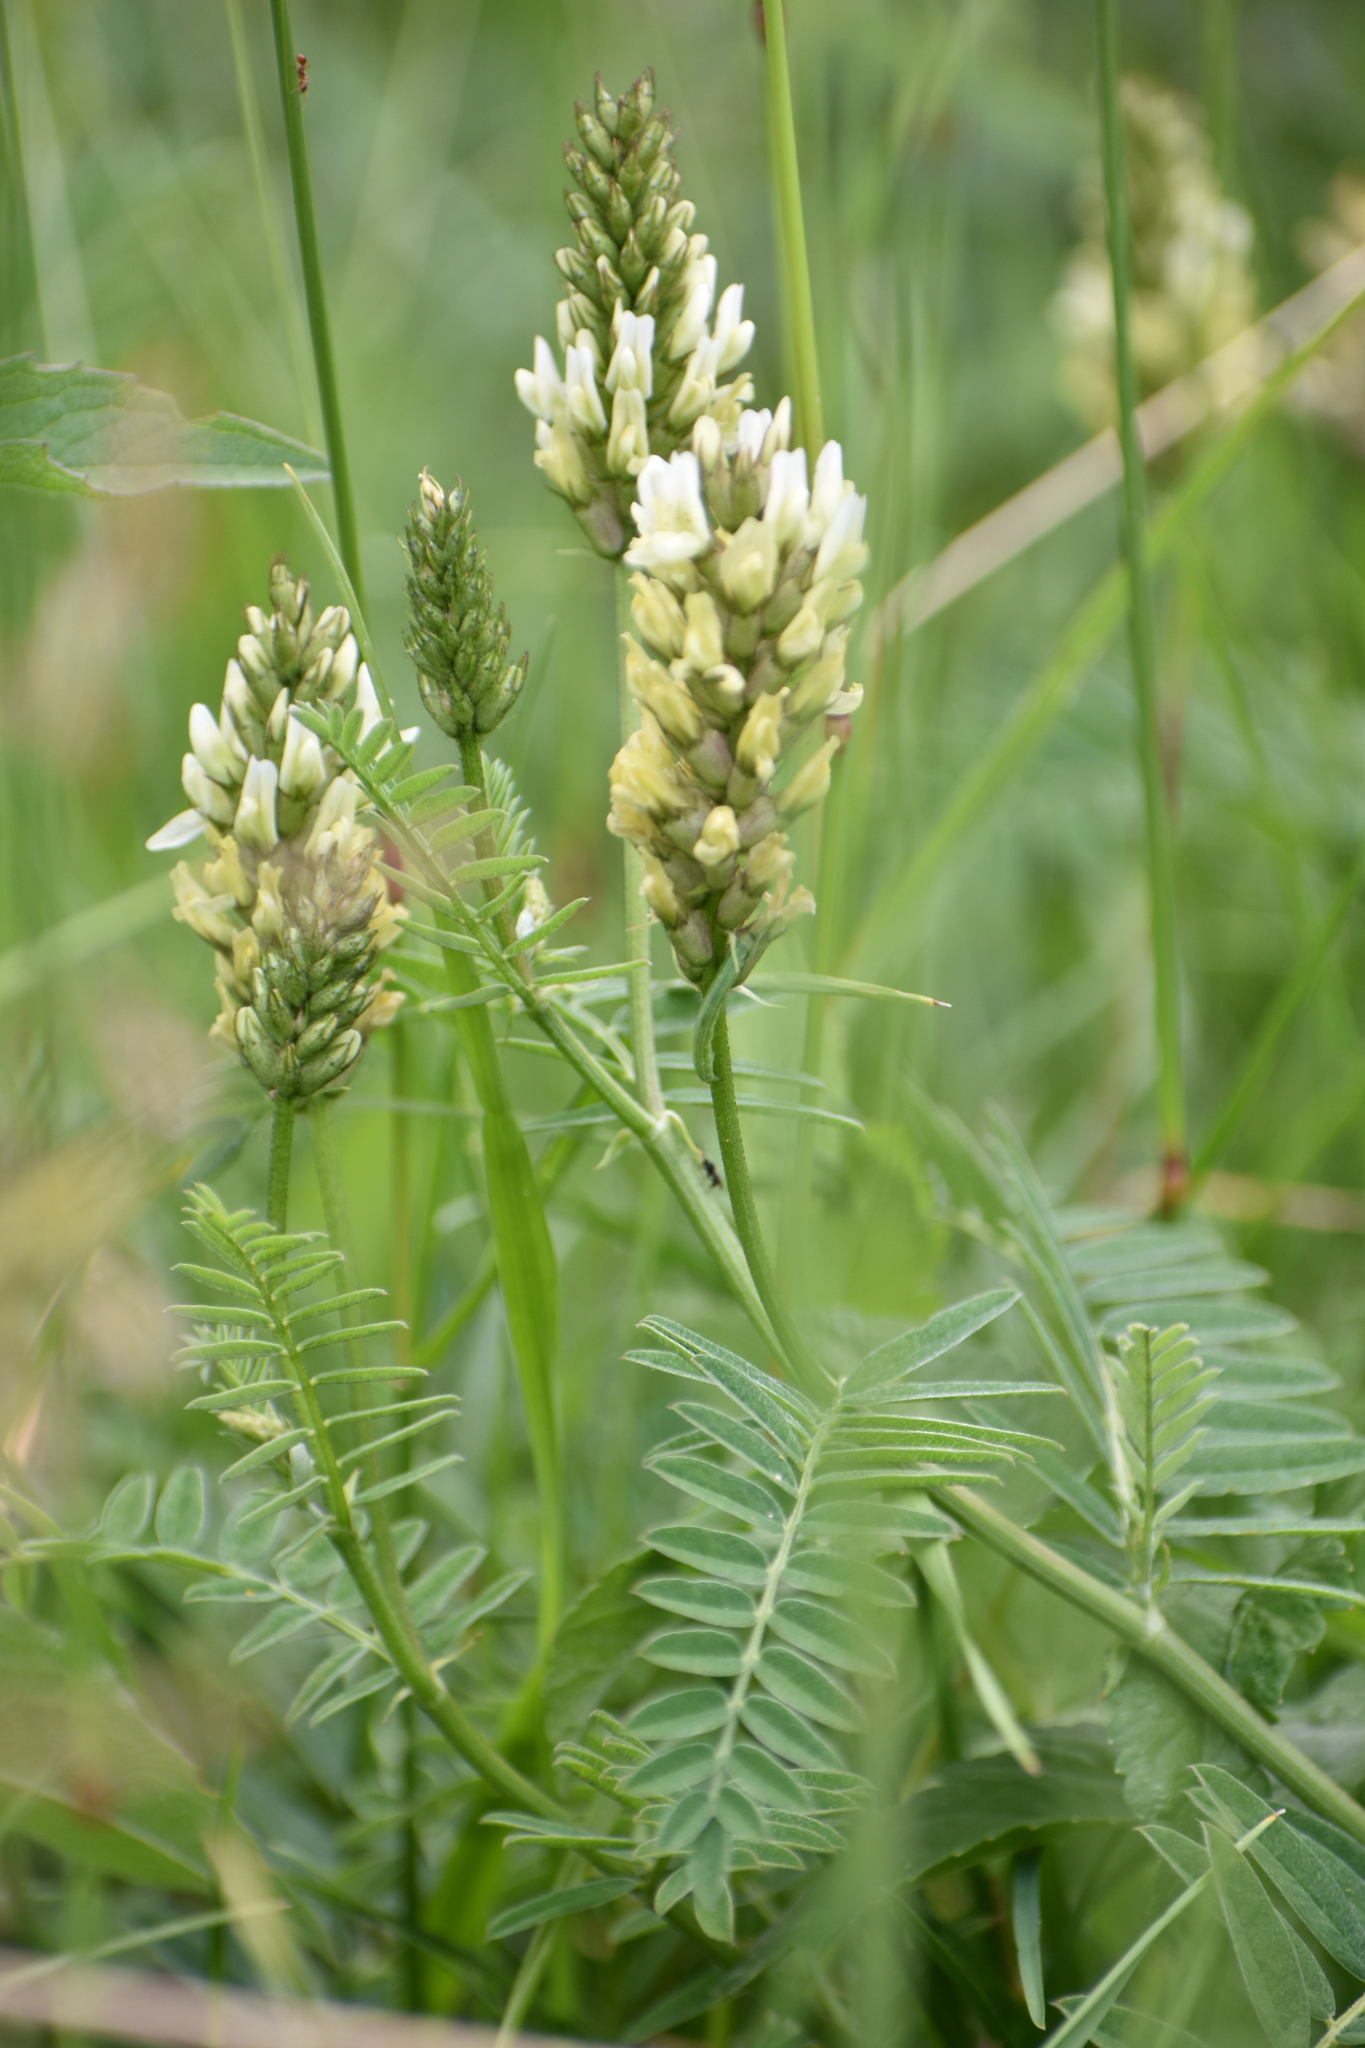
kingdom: Plantae
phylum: Tracheophyta
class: Magnoliopsida
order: Fabales
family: Fabaceae
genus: Astragalus
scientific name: Astragalus cicer
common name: Chick-pea milk-vetch
